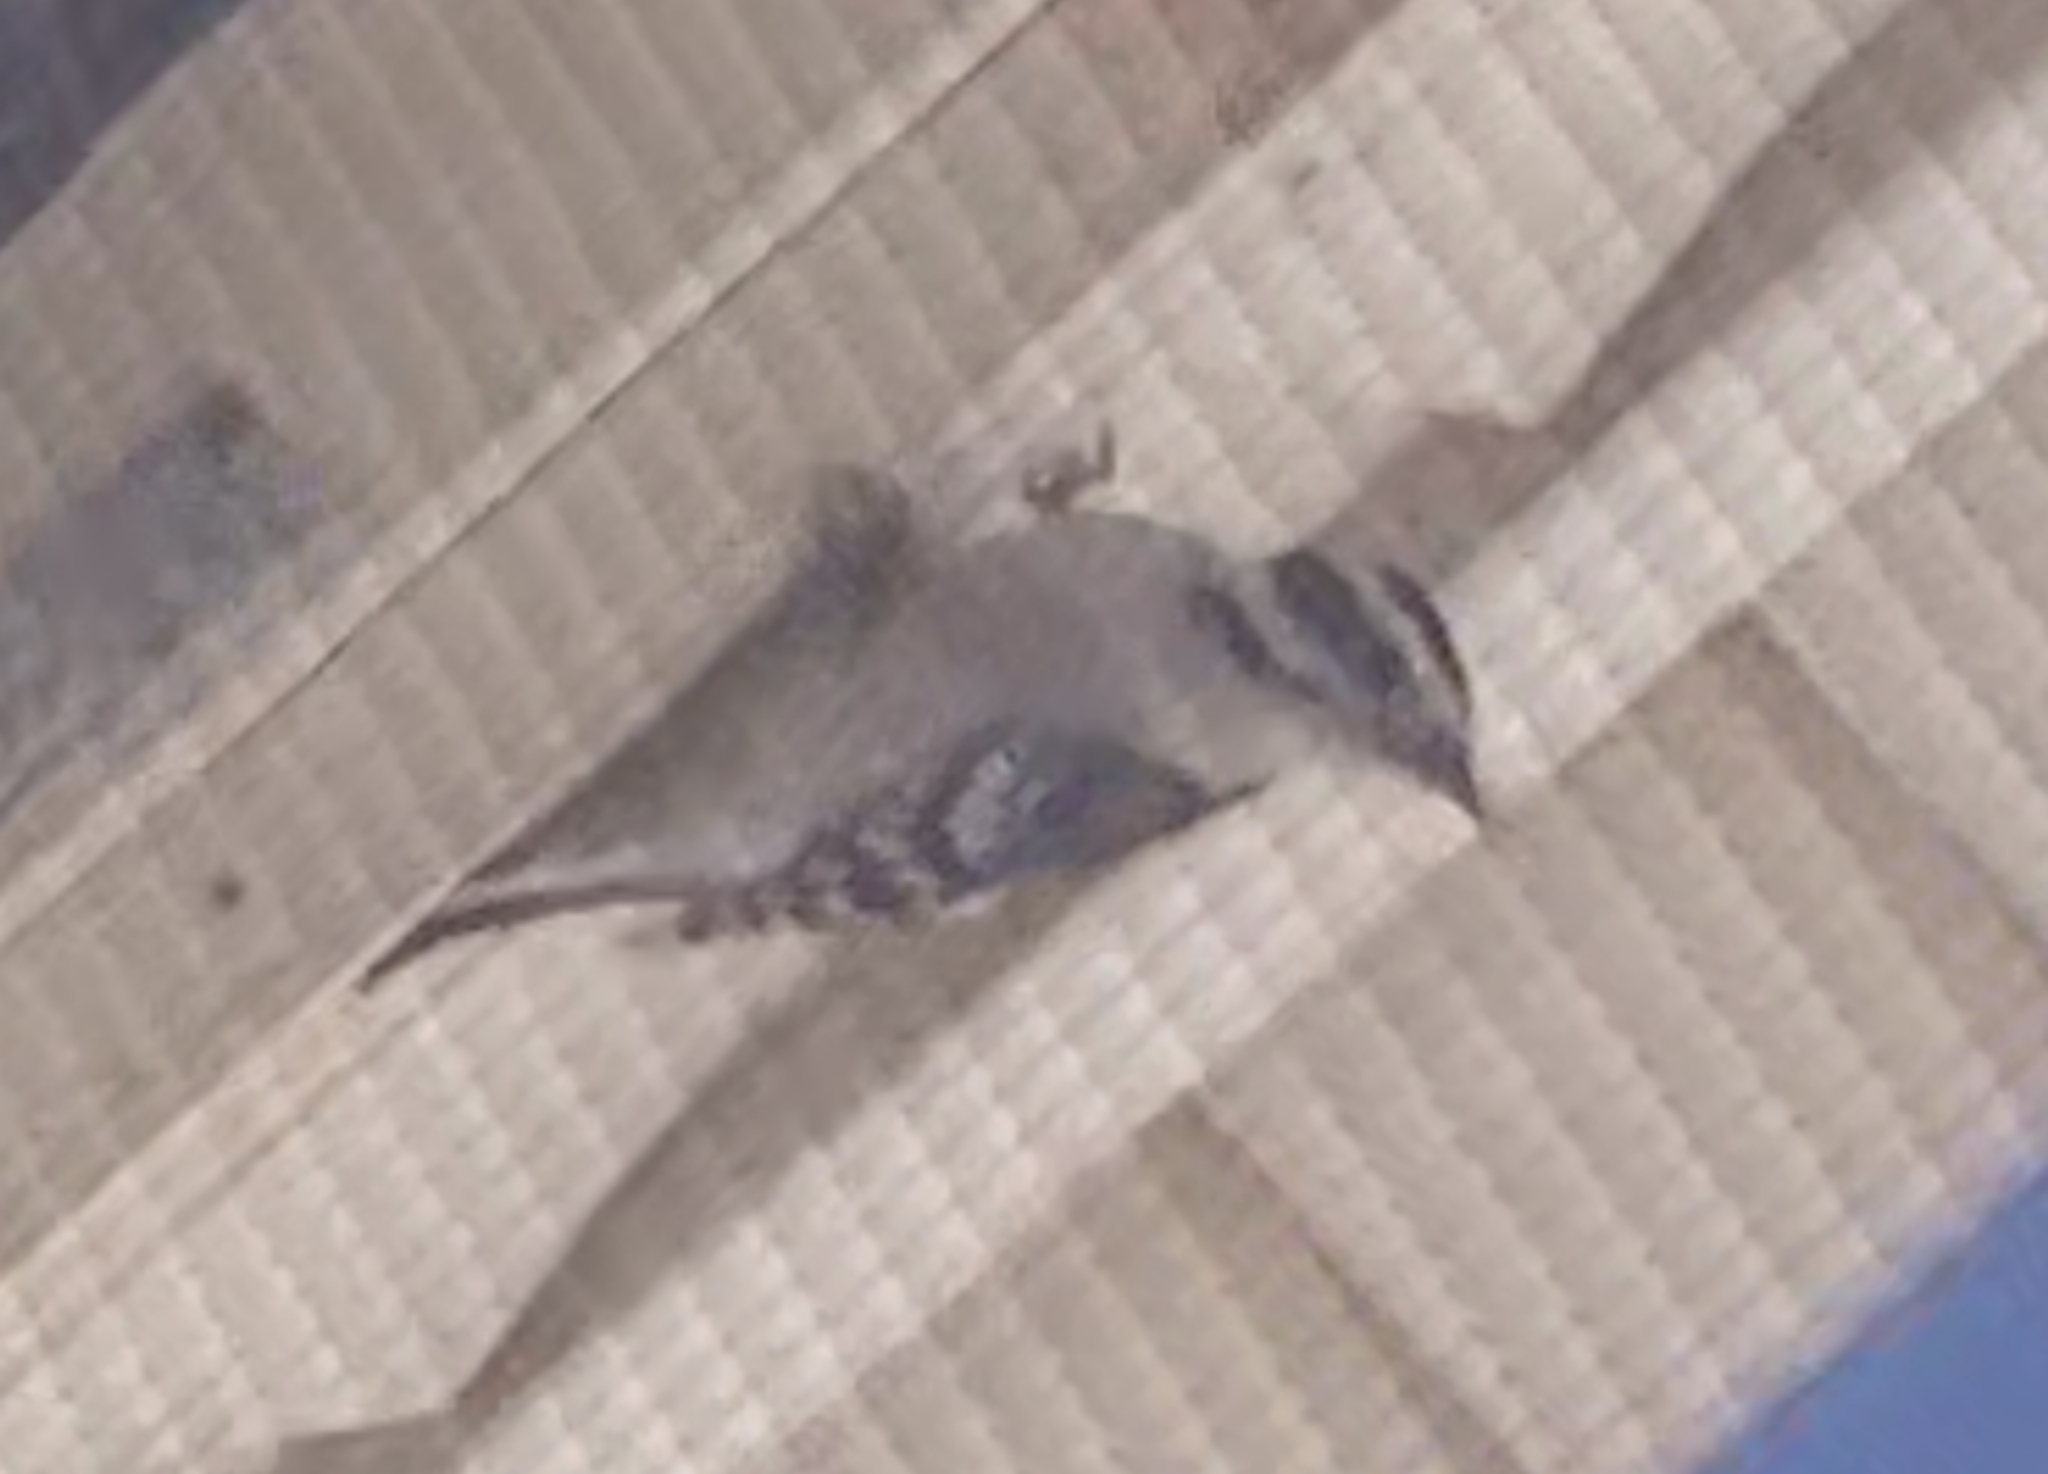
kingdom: Animalia
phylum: Chordata
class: Aves
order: Piciformes
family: Picidae
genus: Dryobates
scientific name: Dryobates pubescens
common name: Downy woodpecker
